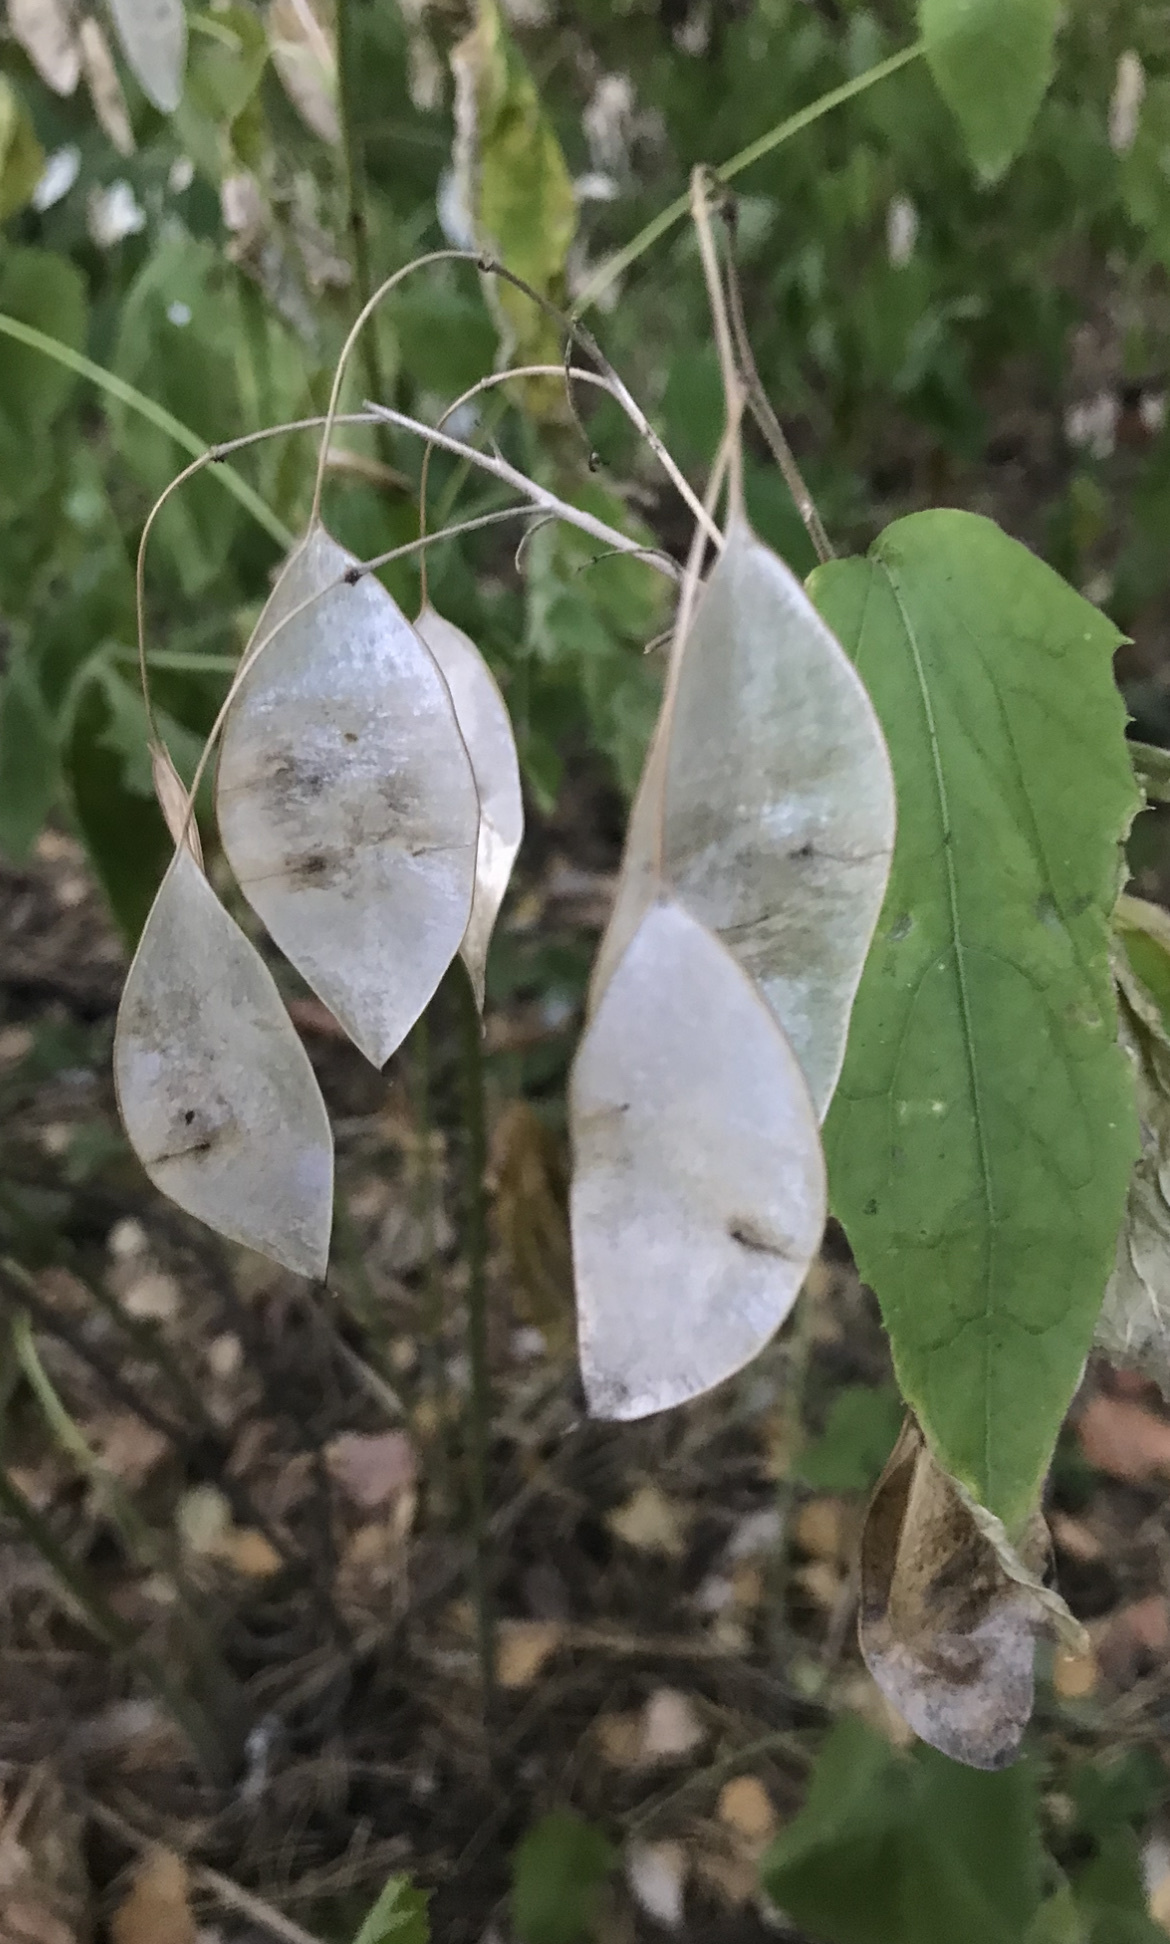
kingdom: Plantae
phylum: Tracheophyta
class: Magnoliopsida
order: Brassicales
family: Brassicaceae
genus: Lunaria
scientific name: Lunaria rediviva
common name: Perennial honesty
